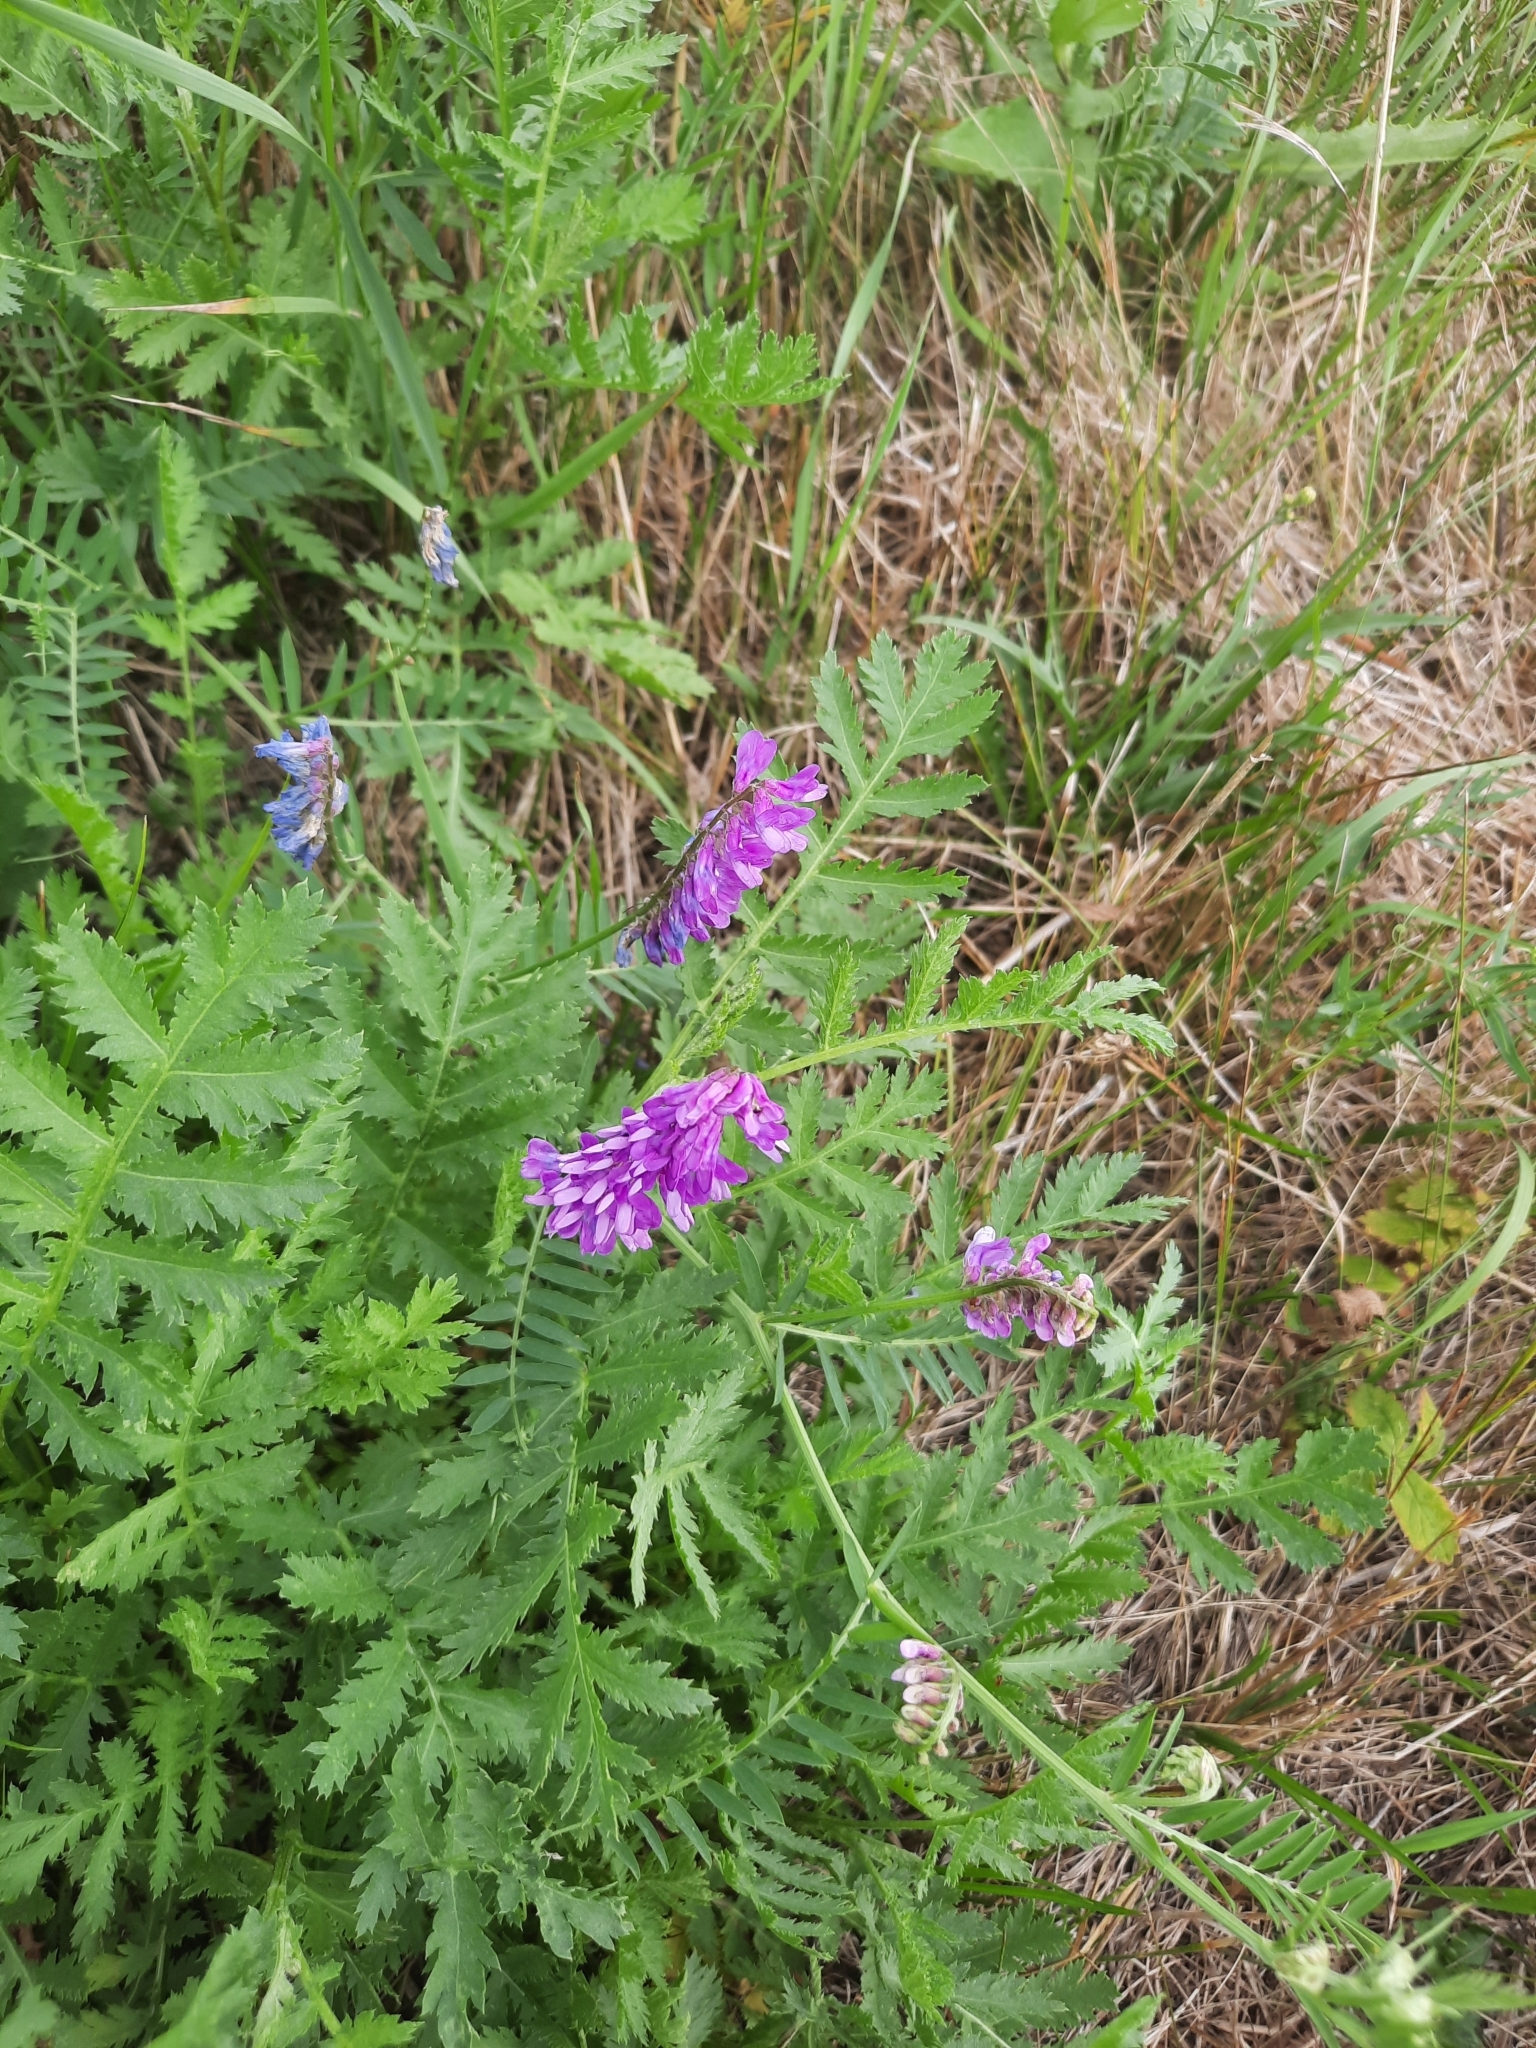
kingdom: Plantae
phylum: Tracheophyta
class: Magnoliopsida
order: Fabales
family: Fabaceae
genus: Vicia
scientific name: Vicia cracca
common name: Bird vetch
